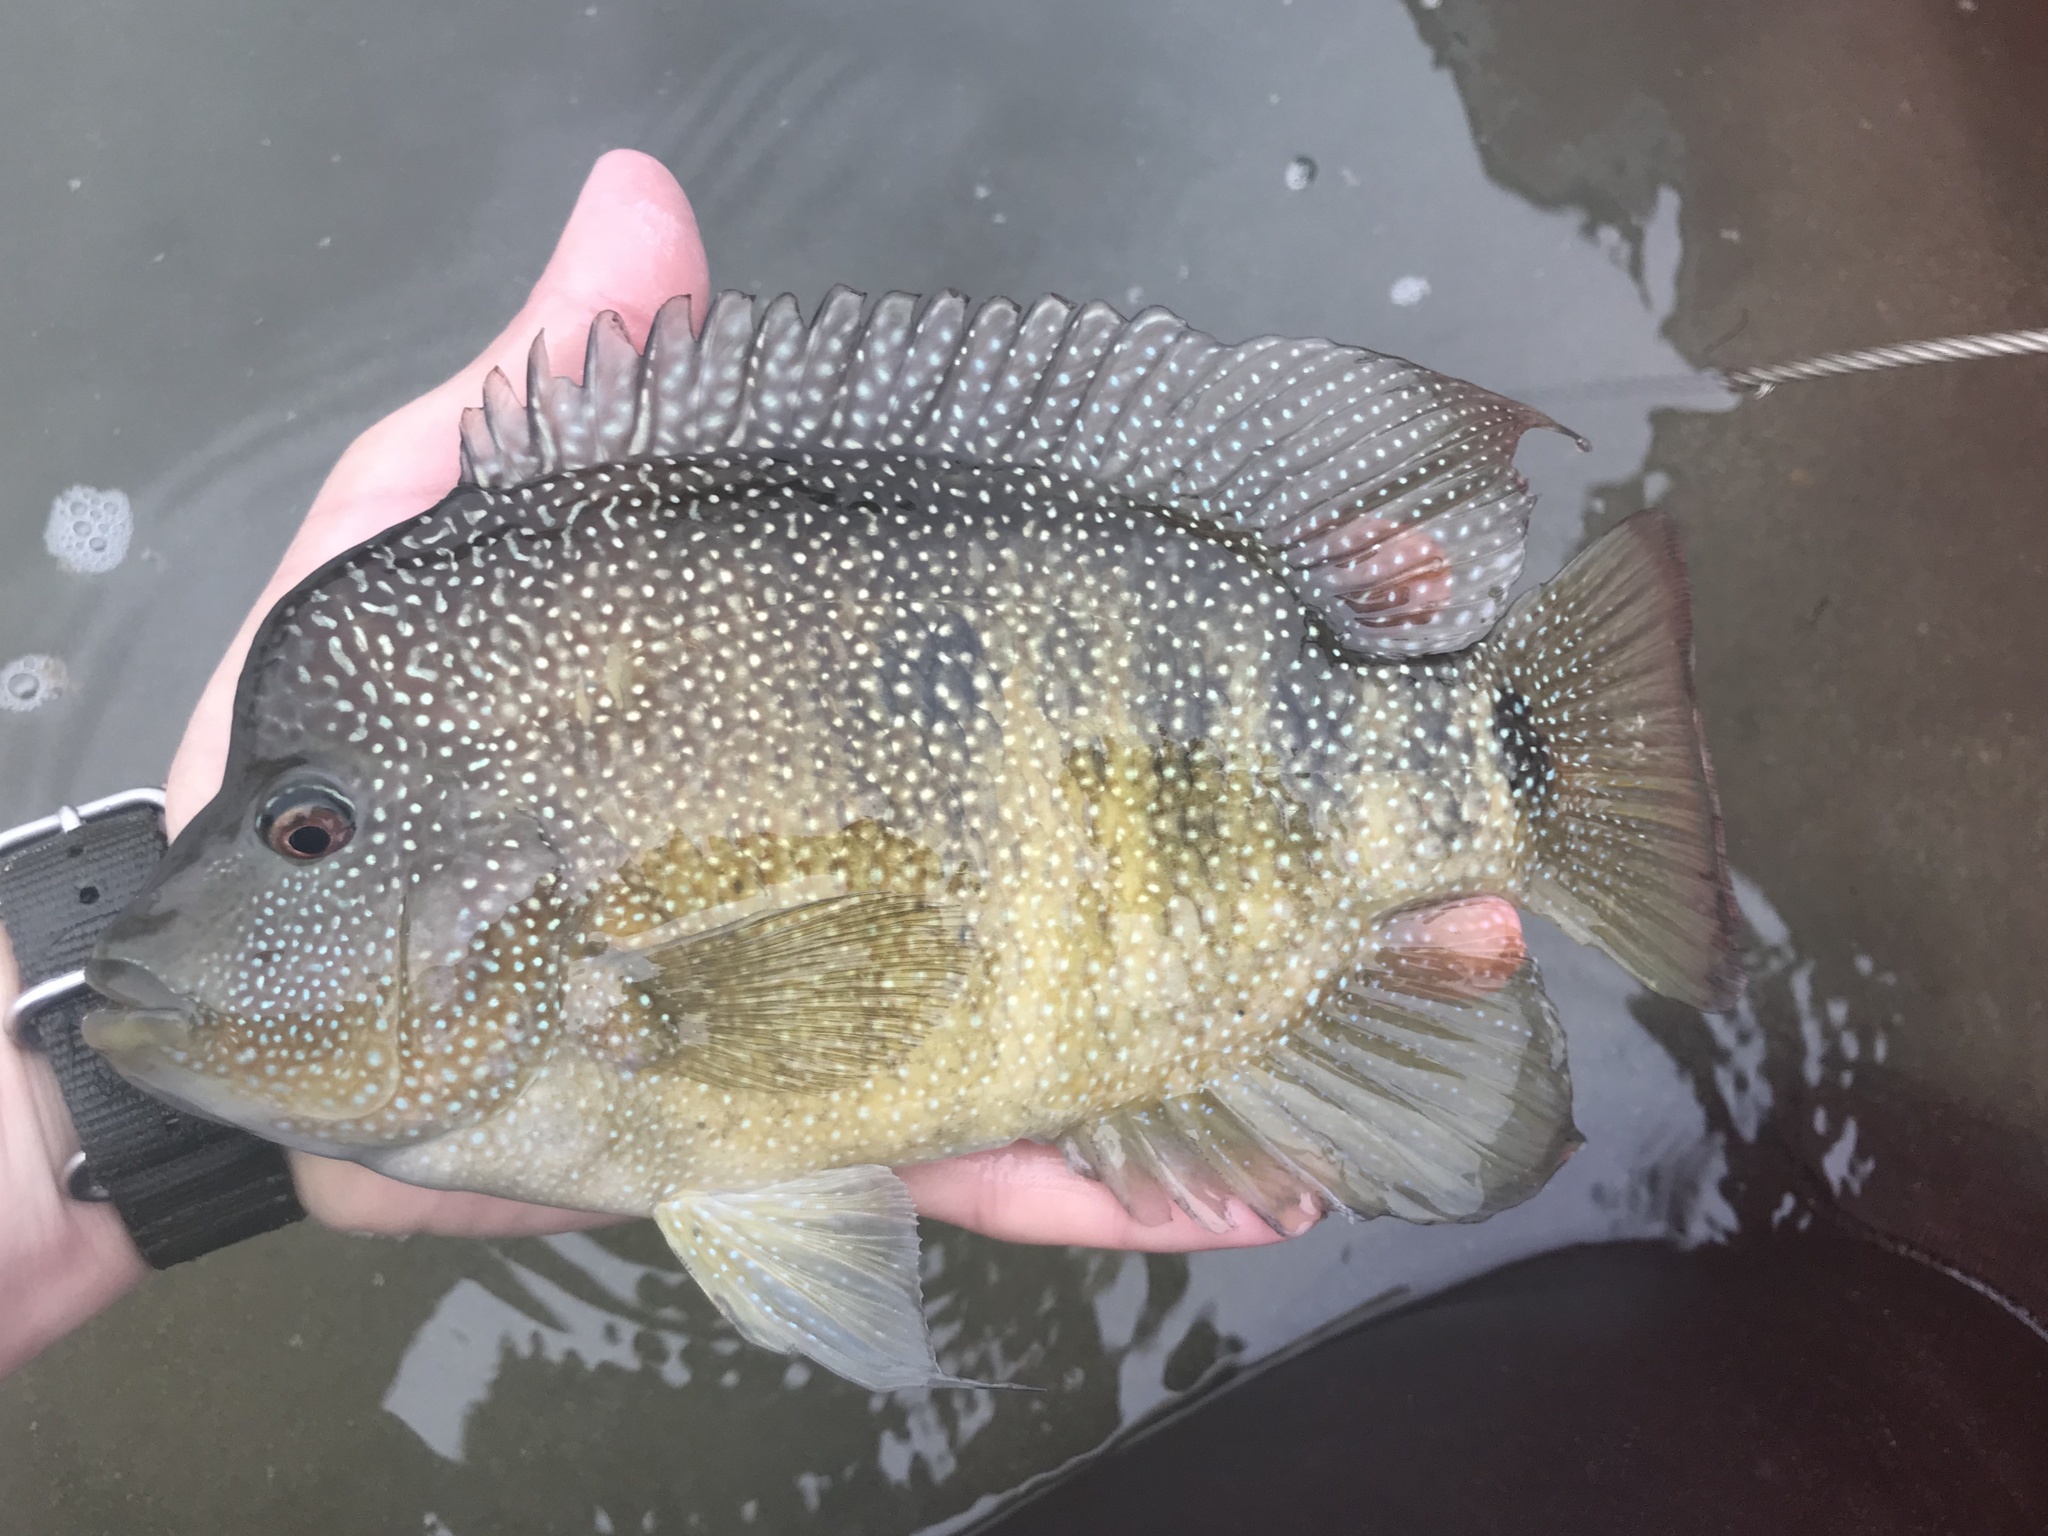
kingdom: Animalia
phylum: Chordata
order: Perciformes
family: Cichlidae
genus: Herichthys
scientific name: Herichthys cyanoguttatus
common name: Rio grande cichlid
